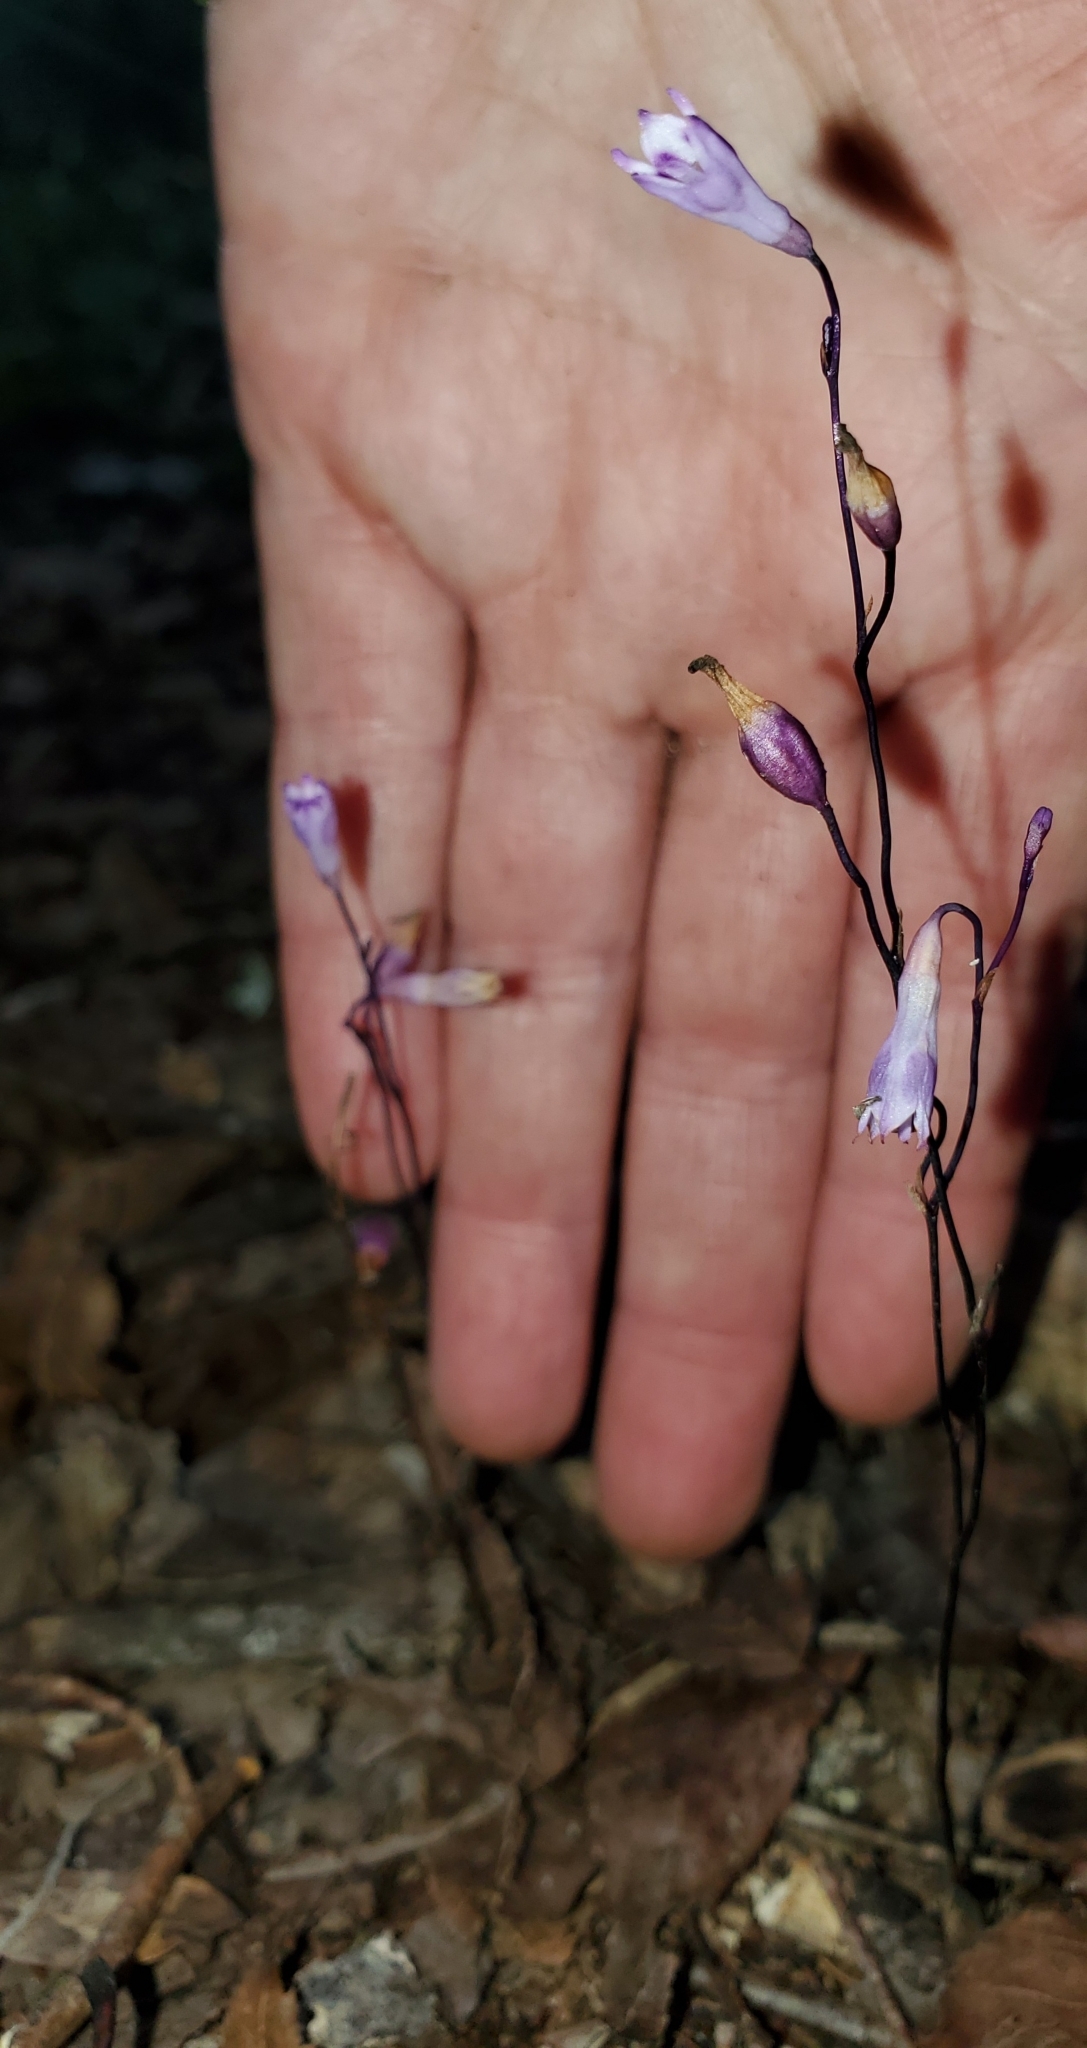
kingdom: Plantae
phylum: Tracheophyta
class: Liliopsida
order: Dioscoreales
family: Burmanniaceae
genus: Apteria
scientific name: Apteria aphylla
